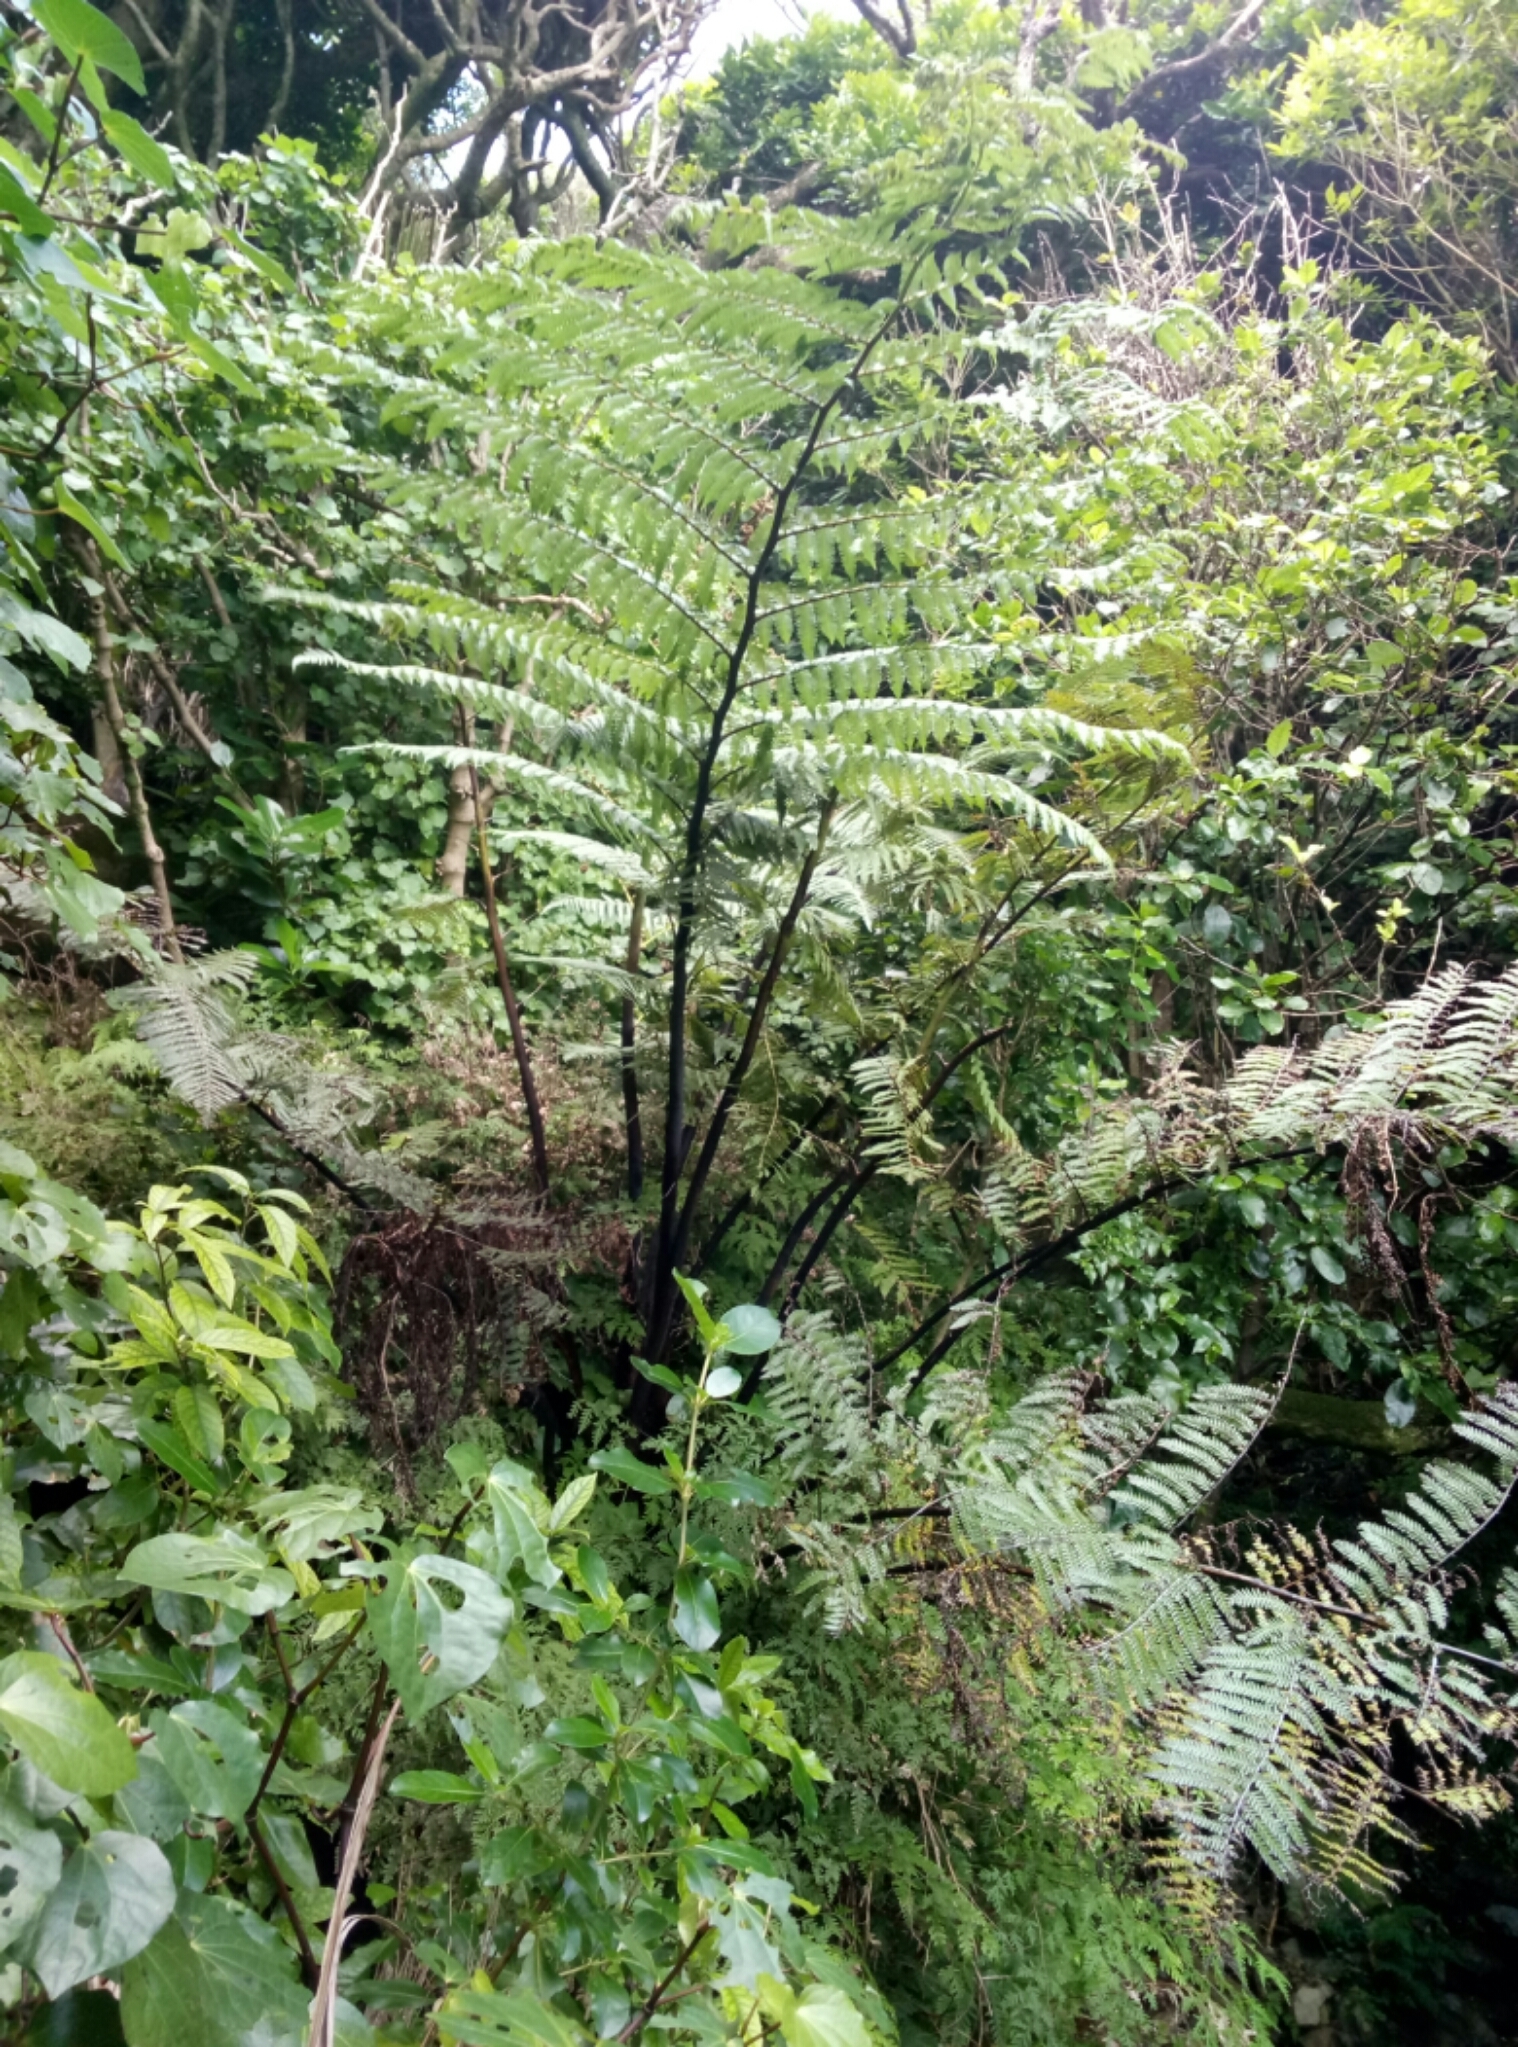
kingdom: Plantae
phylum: Tracheophyta
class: Polypodiopsida
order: Cyatheales
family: Cyatheaceae
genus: Sphaeropteris
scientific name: Sphaeropteris medullaris
